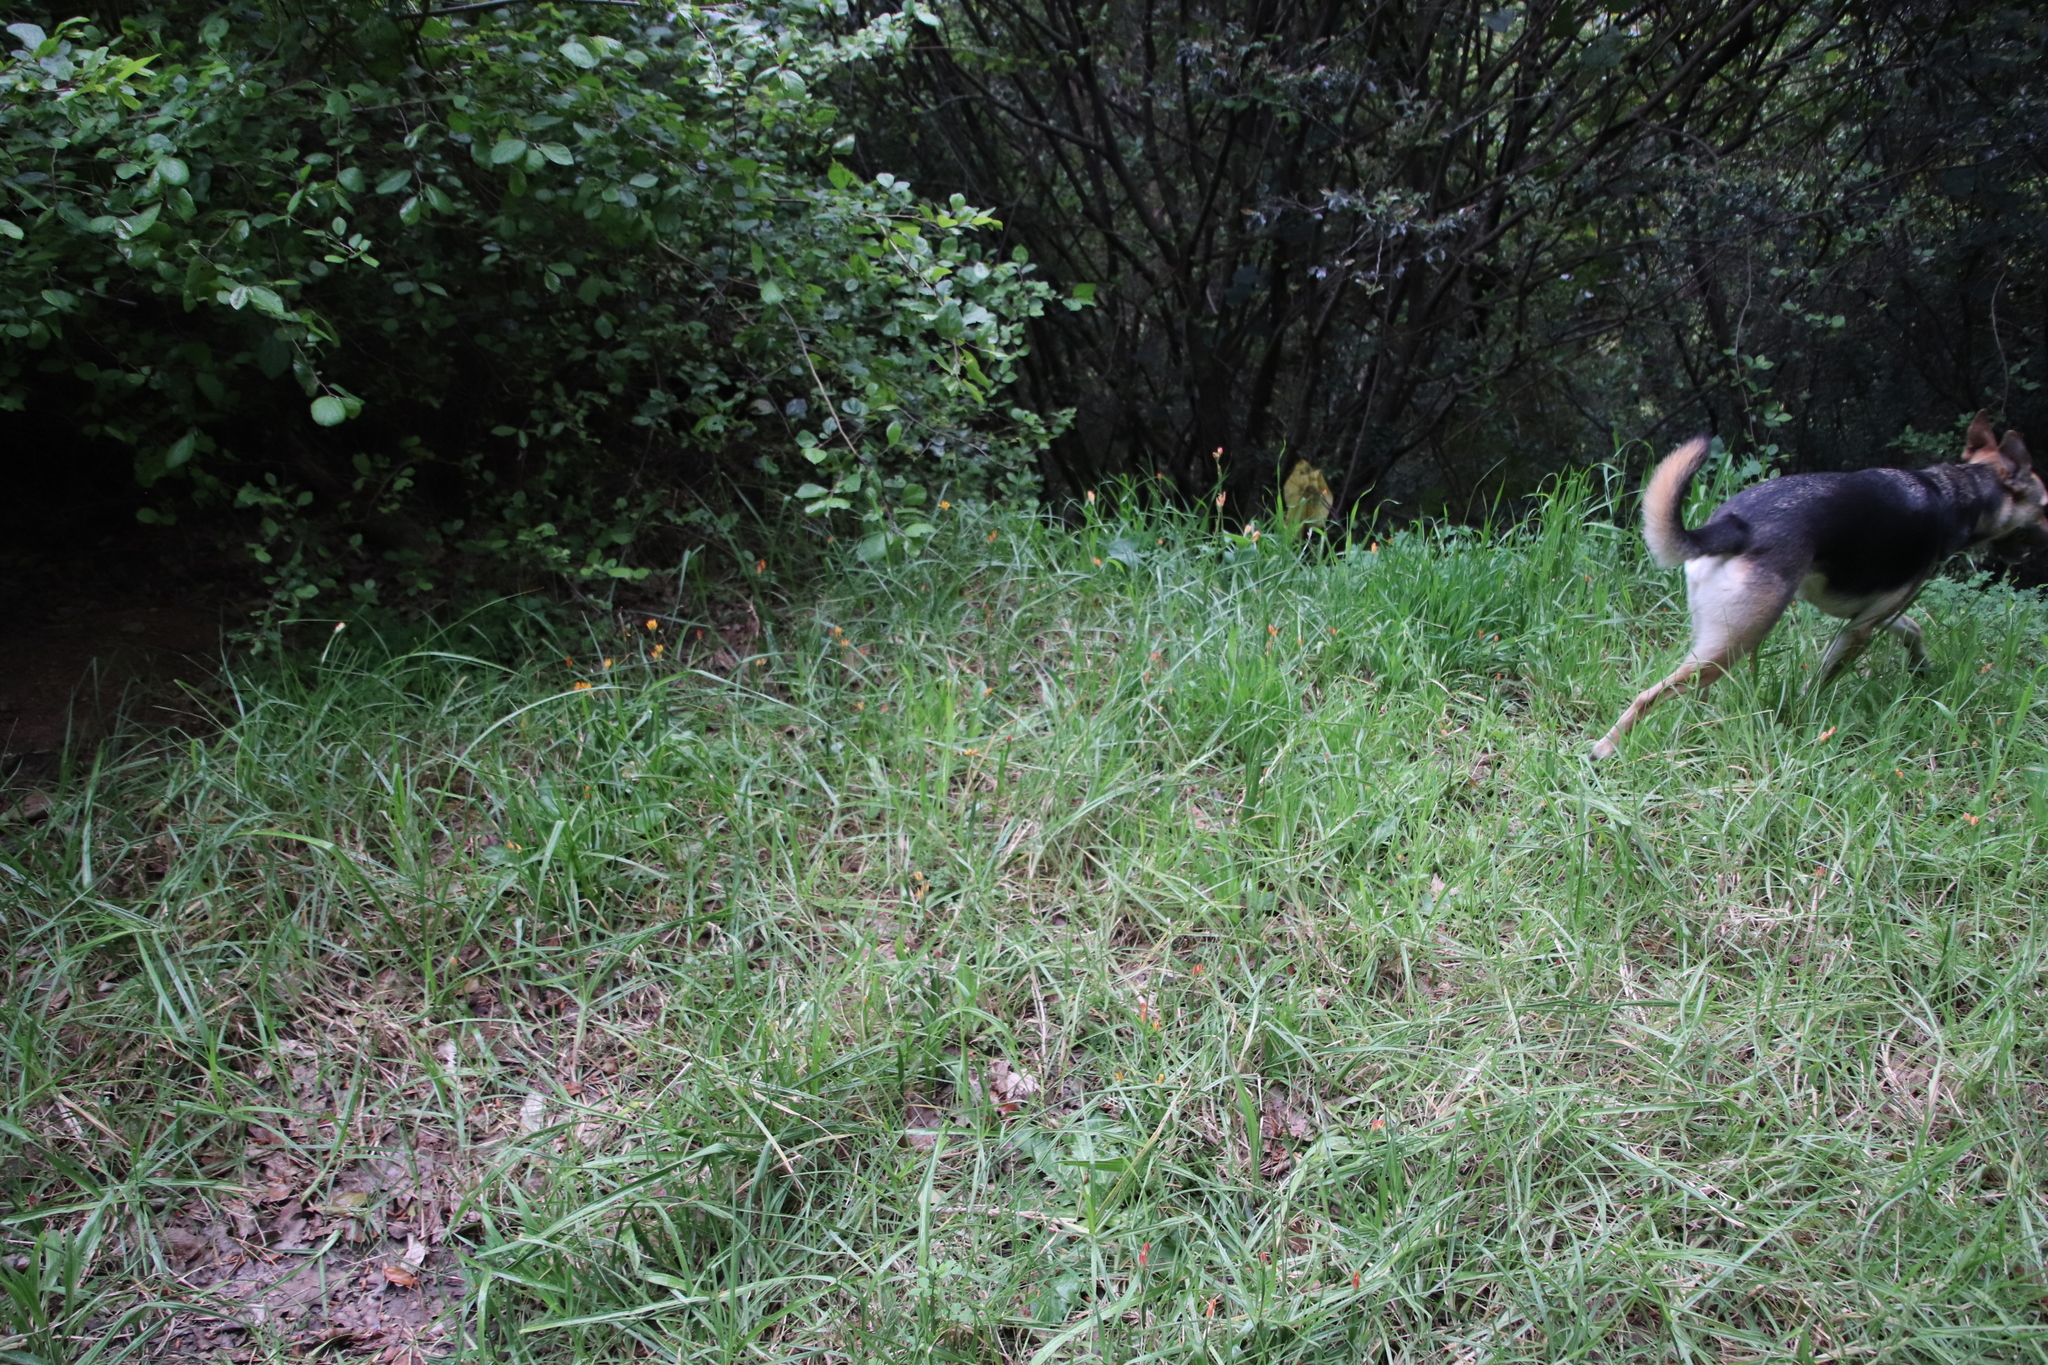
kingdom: Plantae
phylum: Tracheophyta
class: Liliopsida
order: Liliales
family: Colchicaceae
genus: Baeometra
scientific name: Baeometra uniflora
